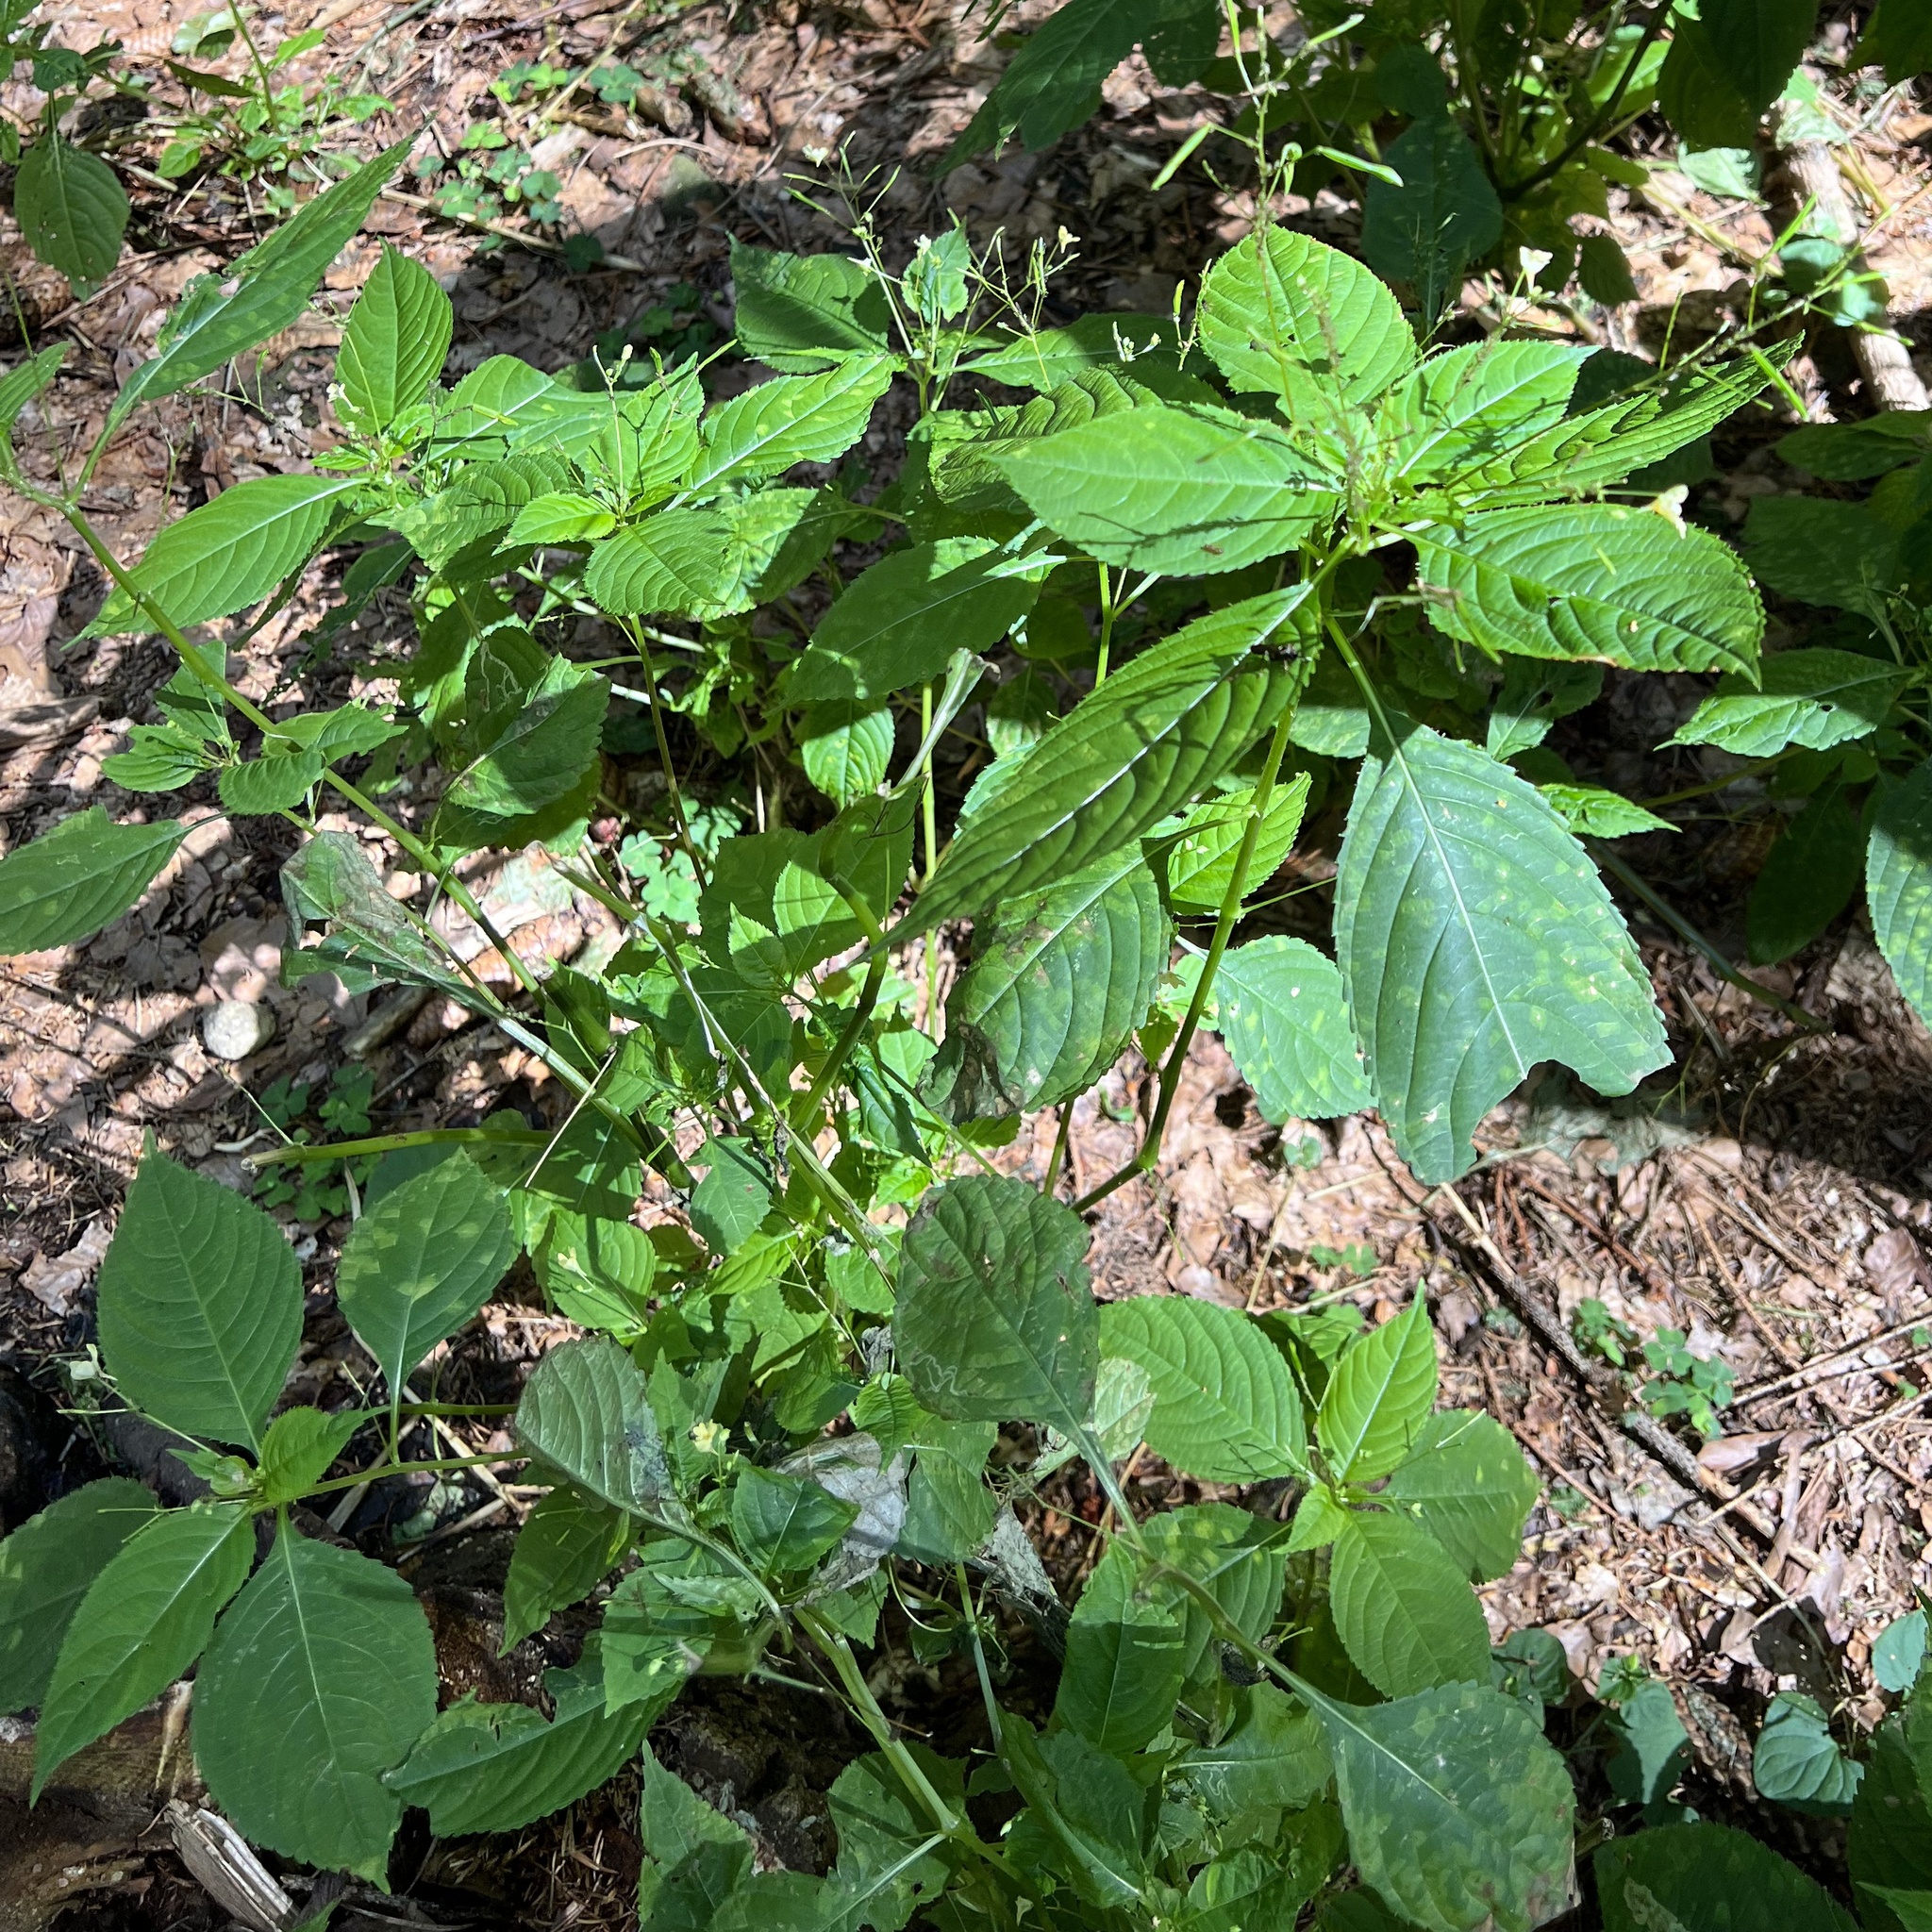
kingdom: Plantae
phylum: Tracheophyta
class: Magnoliopsida
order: Ericales
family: Balsaminaceae
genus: Impatiens
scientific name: Impatiens parviflora
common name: Small balsam
